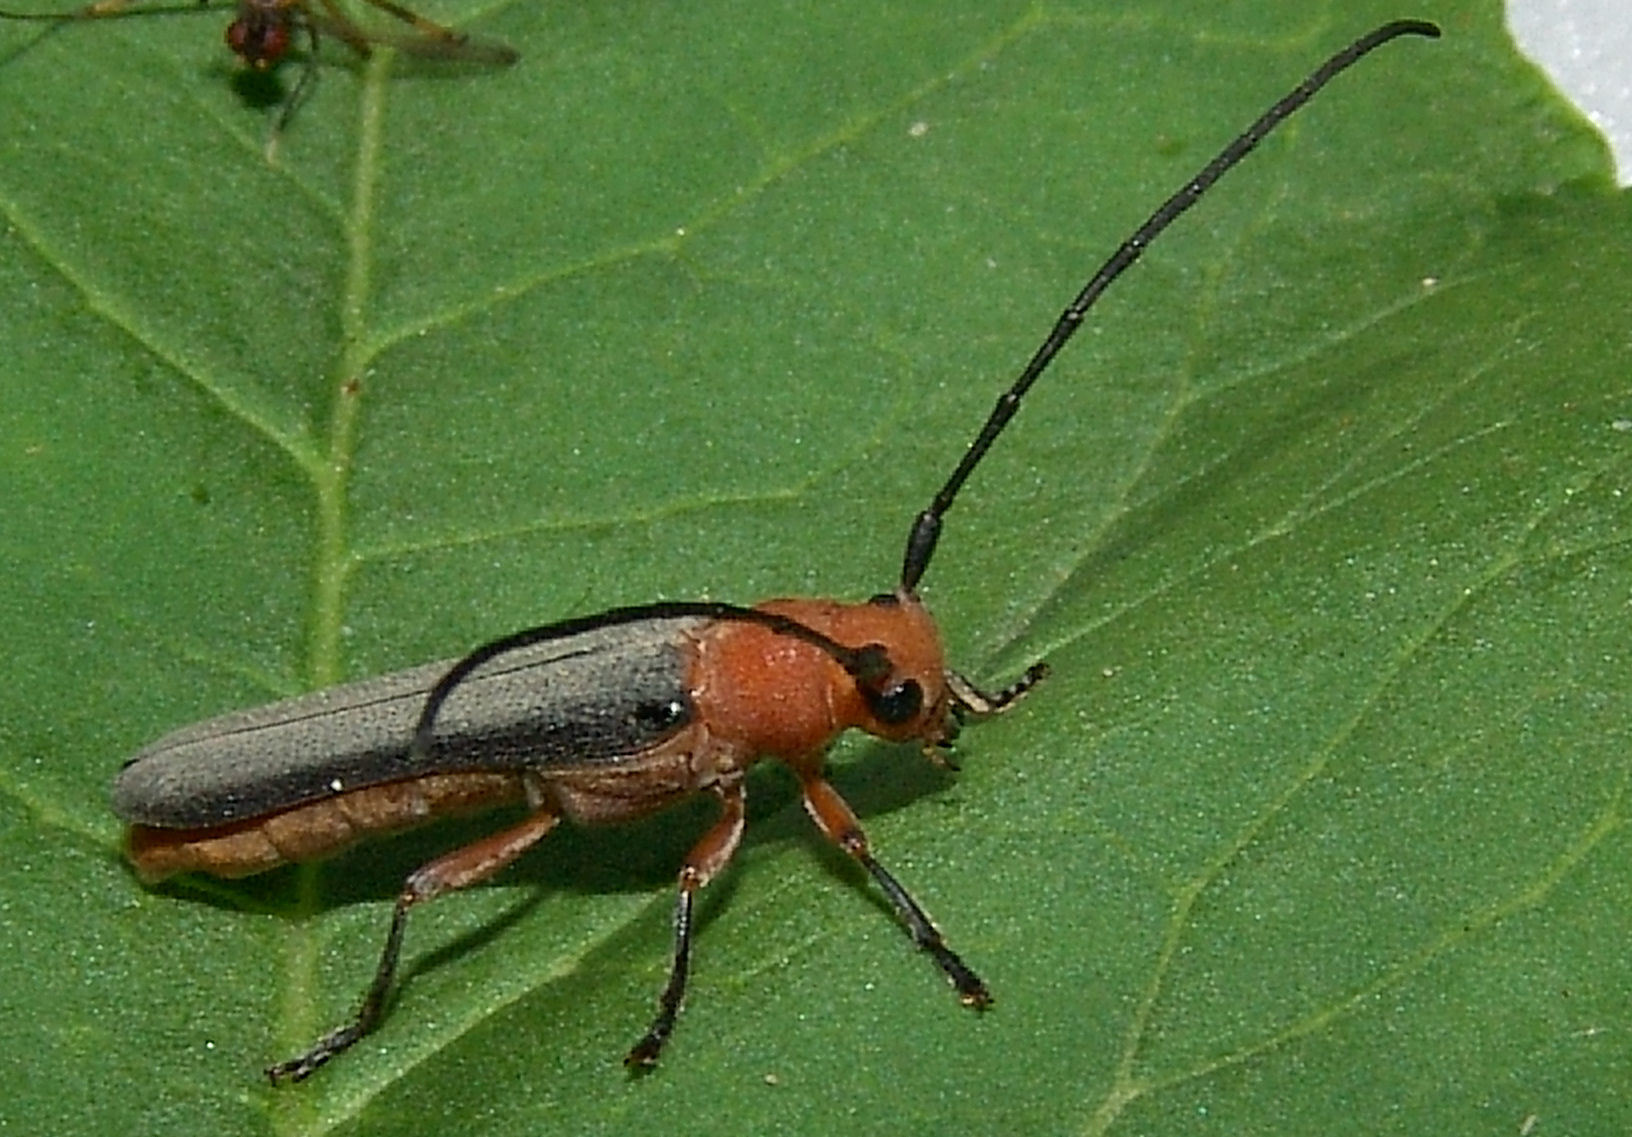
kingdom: Animalia
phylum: Arthropoda
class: Insecta
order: Coleoptera
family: Cerambycidae
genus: Oberea
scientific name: Oberea ruficollis
